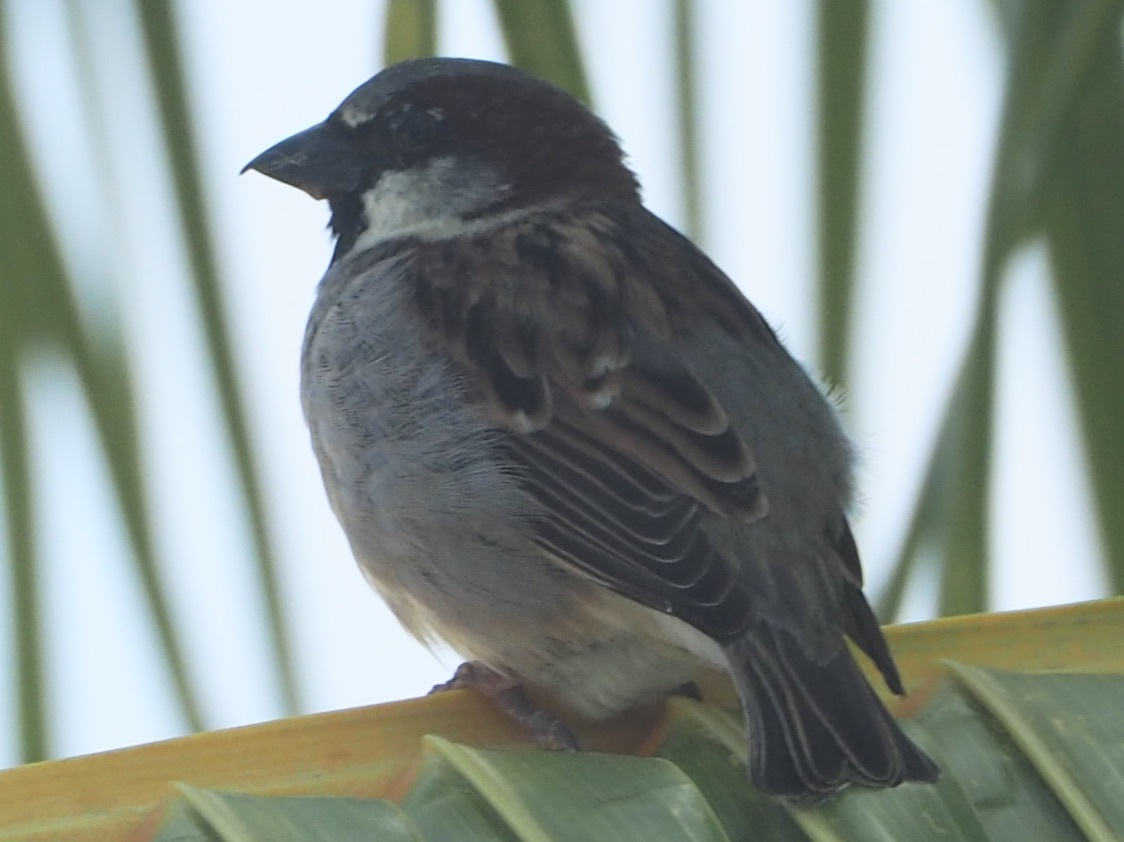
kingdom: Animalia
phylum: Chordata
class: Aves
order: Passeriformes
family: Passeridae
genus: Passer
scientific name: Passer domesticus
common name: House sparrow
